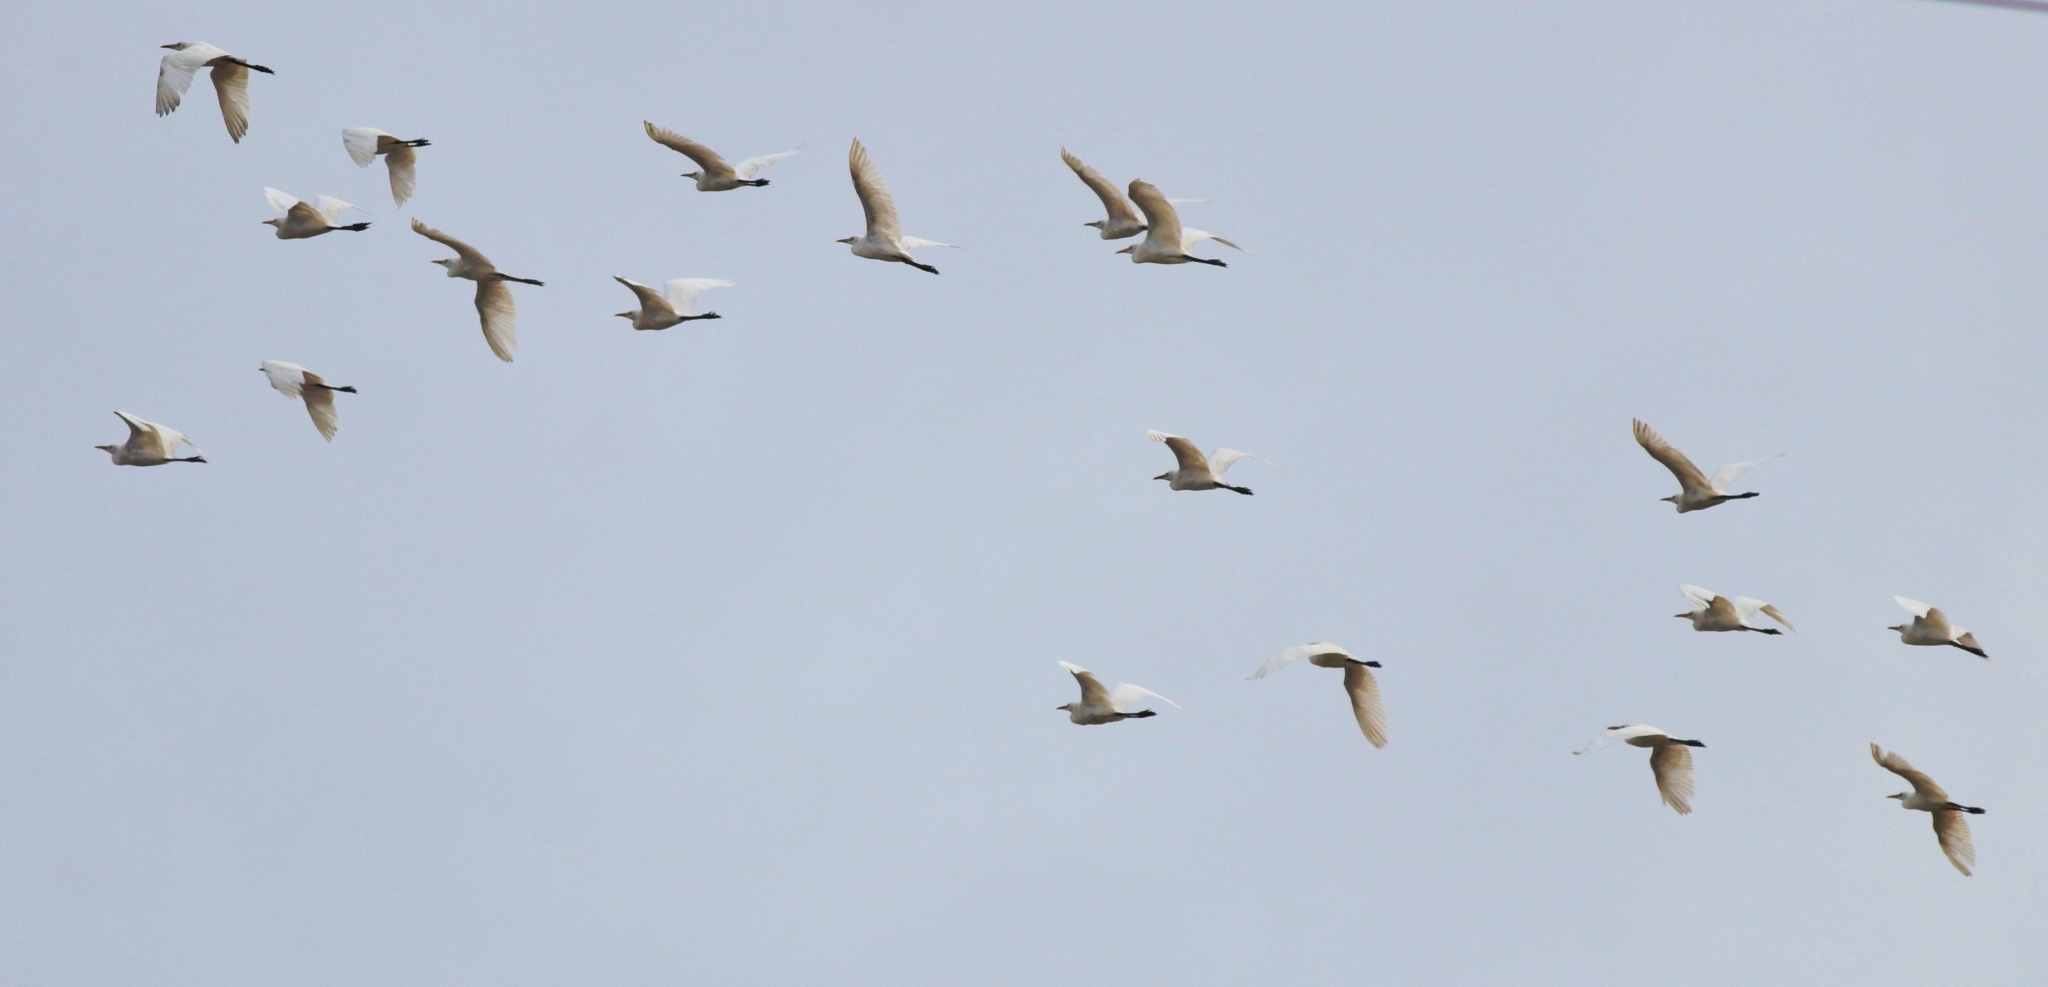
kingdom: Animalia
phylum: Chordata
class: Aves
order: Pelecaniformes
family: Ardeidae
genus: Bubulcus
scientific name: Bubulcus coromandus
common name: Eastern cattle egret
